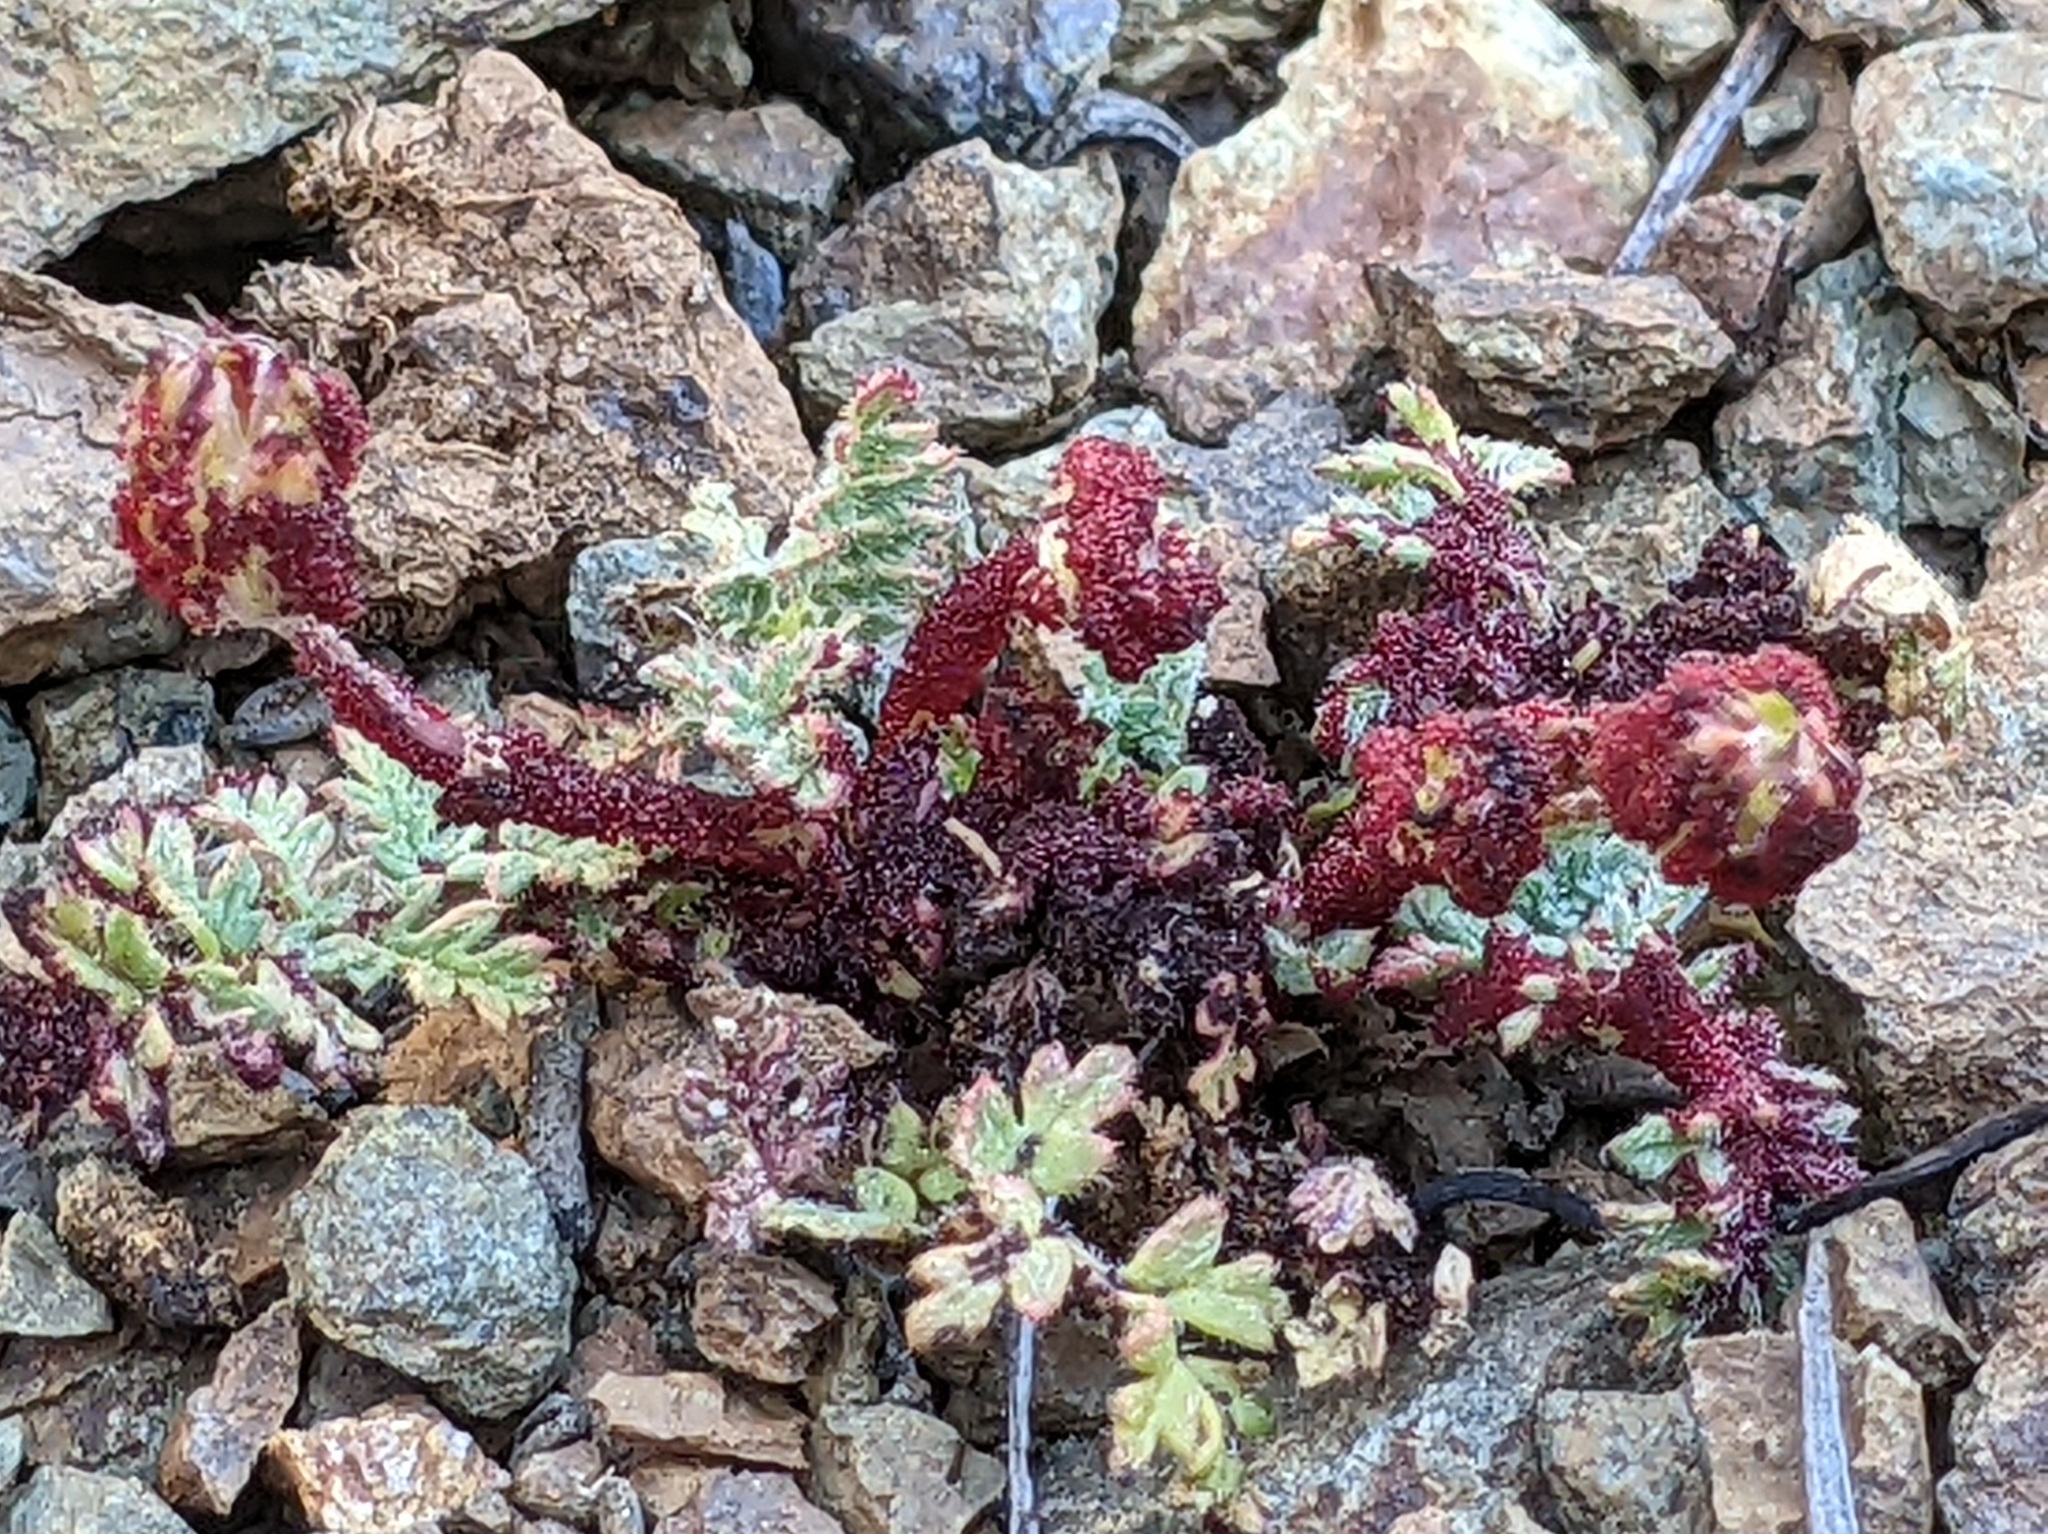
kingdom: Fungi
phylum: Chytridiomycota
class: Chytridiomycetes
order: Chytridiales
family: Synchytriaceae
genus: Synchytrium
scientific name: Synchytrium papillatum
